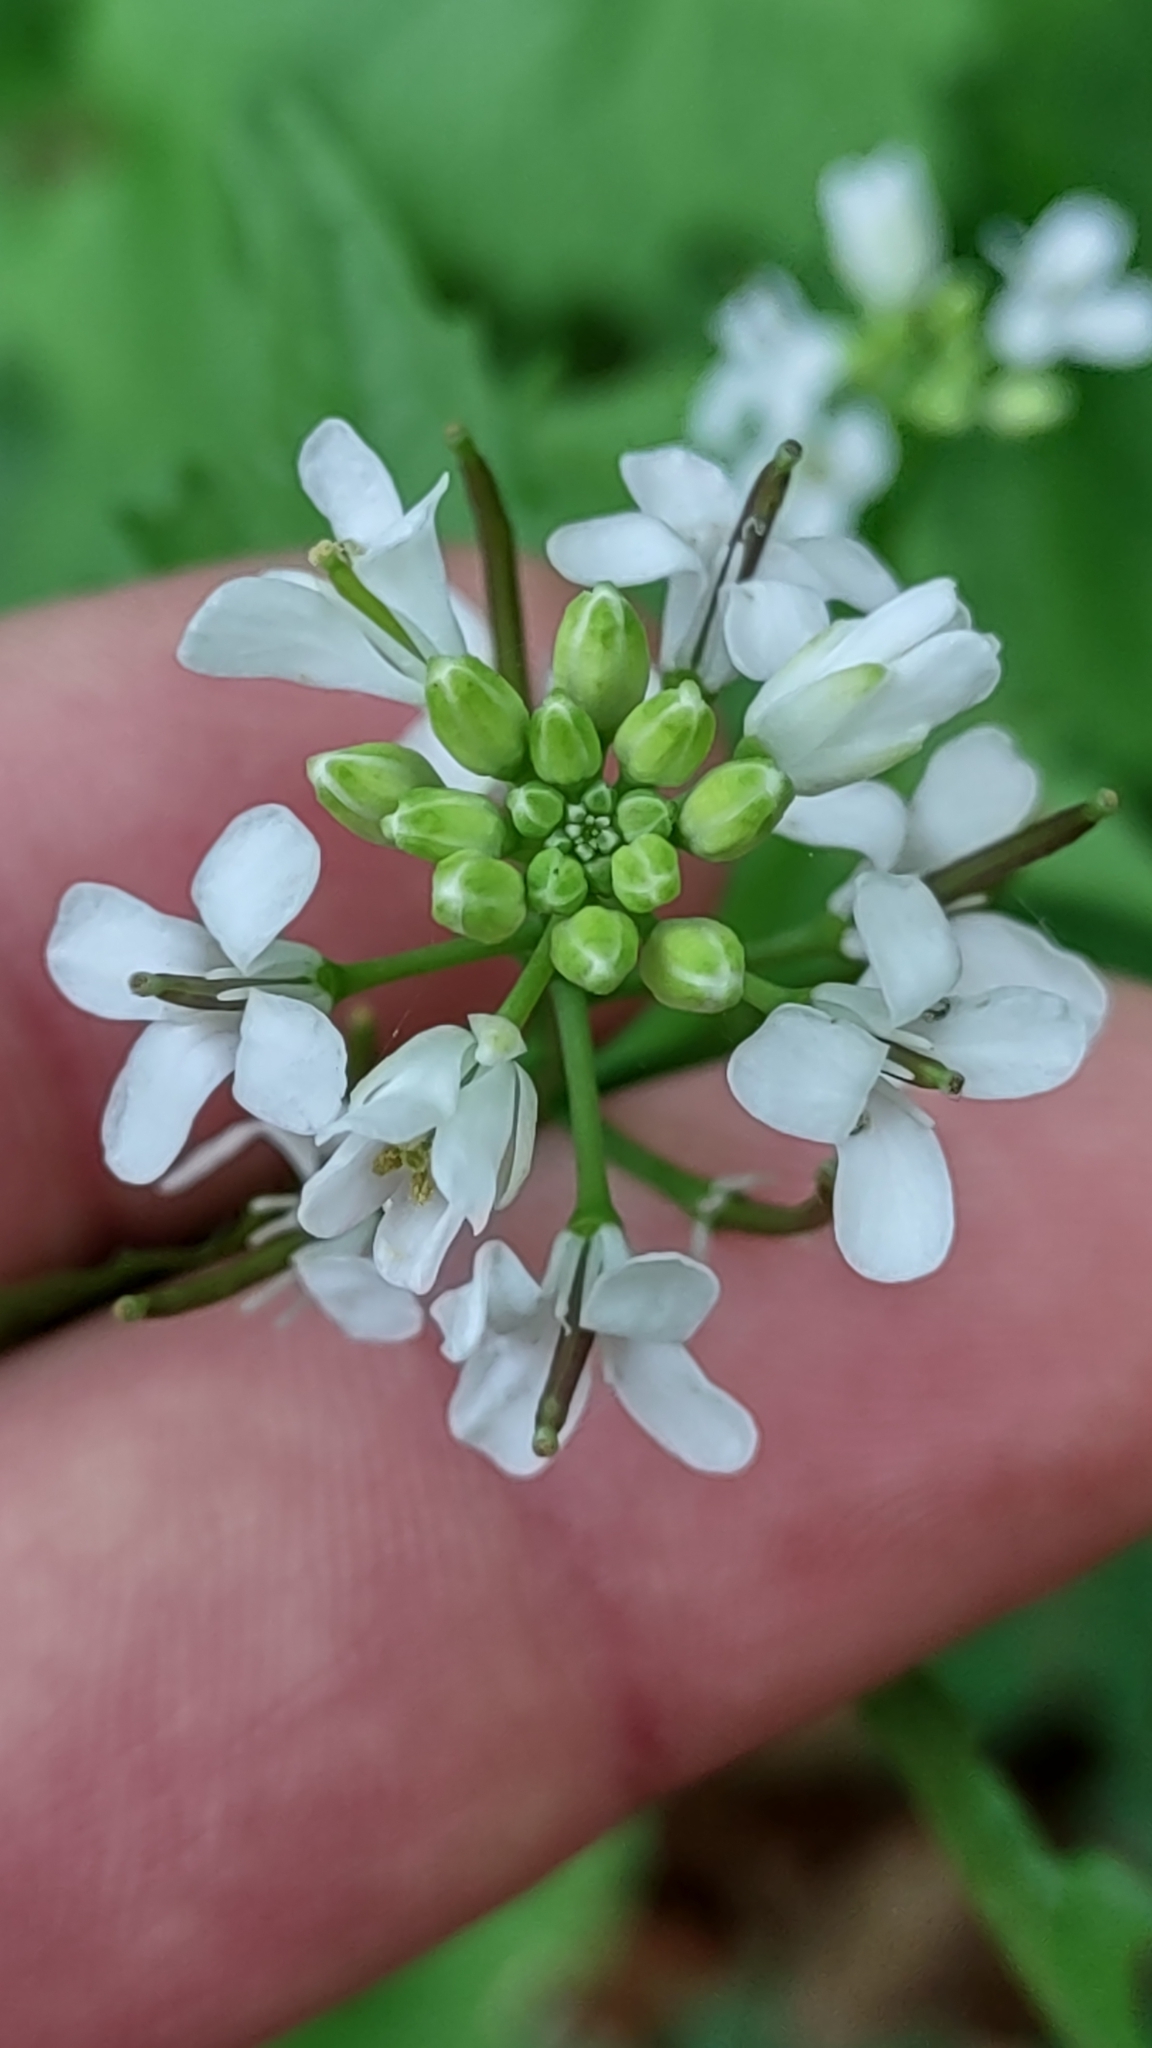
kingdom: Plantae
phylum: Tracheophyta
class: Magnoliopsida
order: Brassicales
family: Brassicaceae
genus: Alliaria
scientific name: Alliaria petiolata
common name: Garlic mustard
